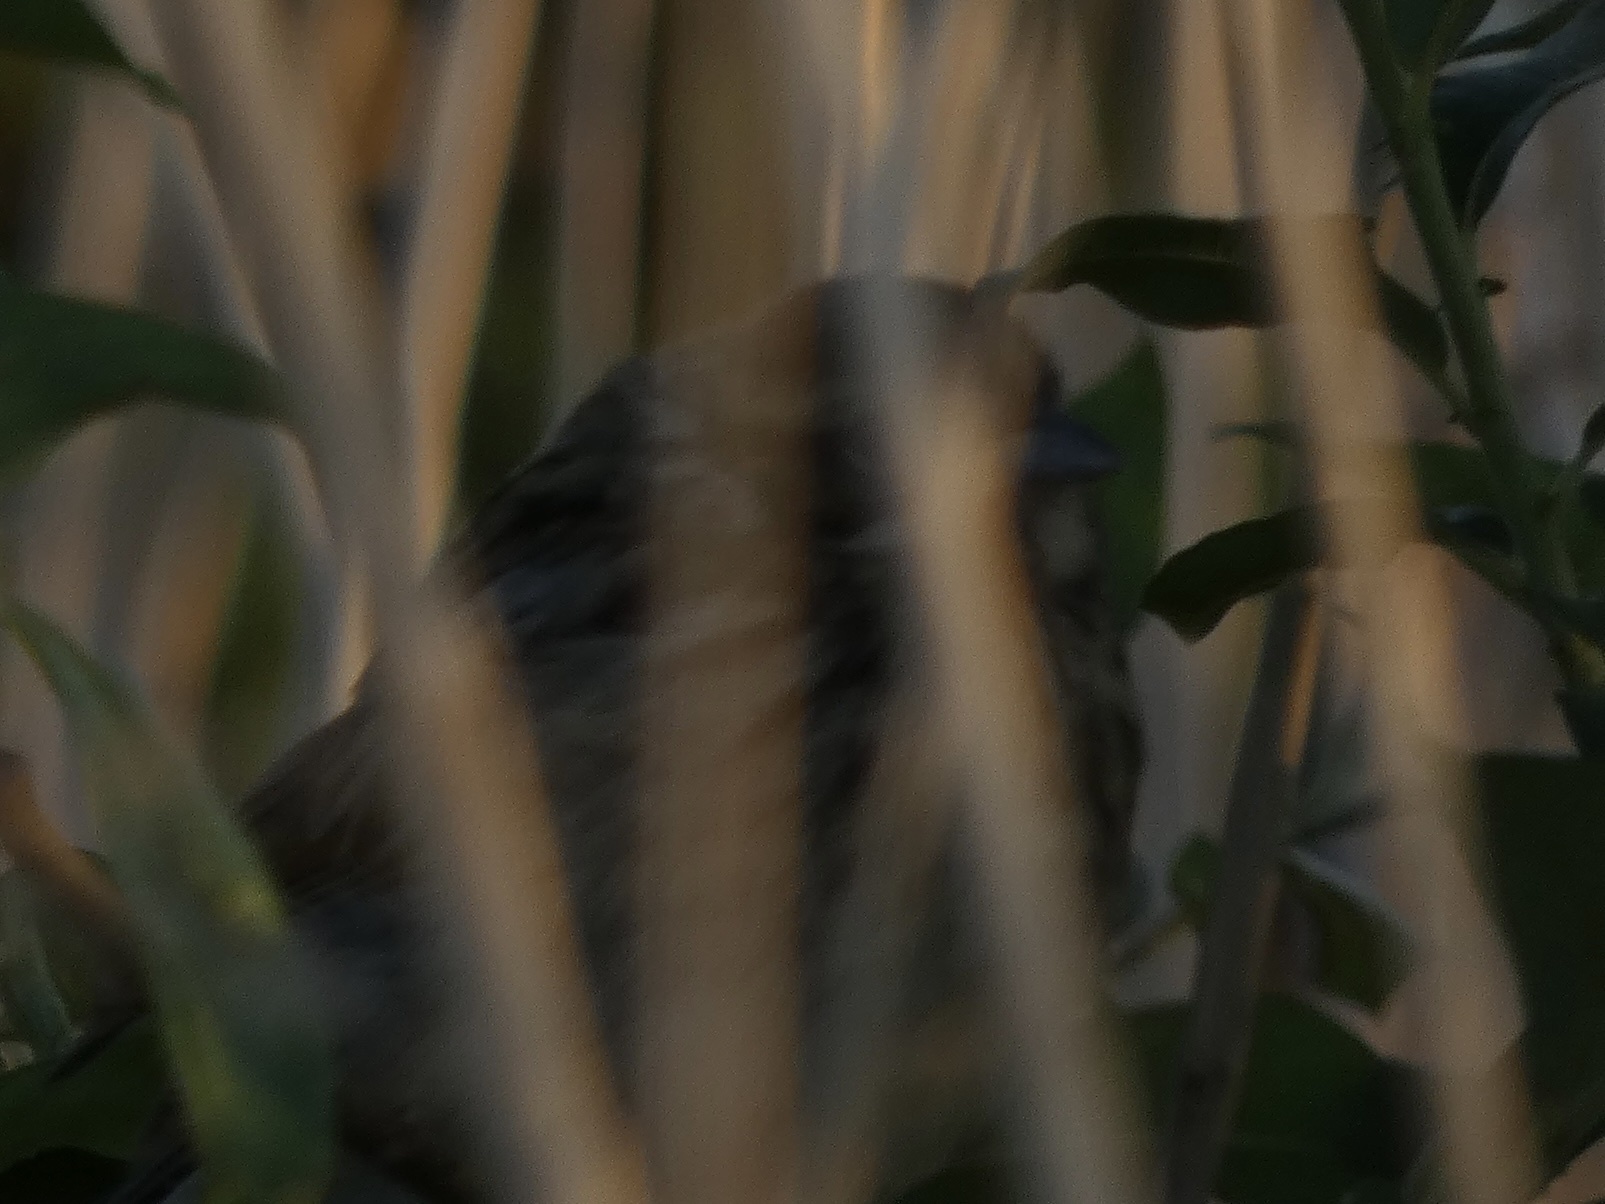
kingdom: Animalia
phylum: Chordata
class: Aves
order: Passeriformes
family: Emberizidae
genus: Emberiza
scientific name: Emberiza schoeniclus
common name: Reed bunting
